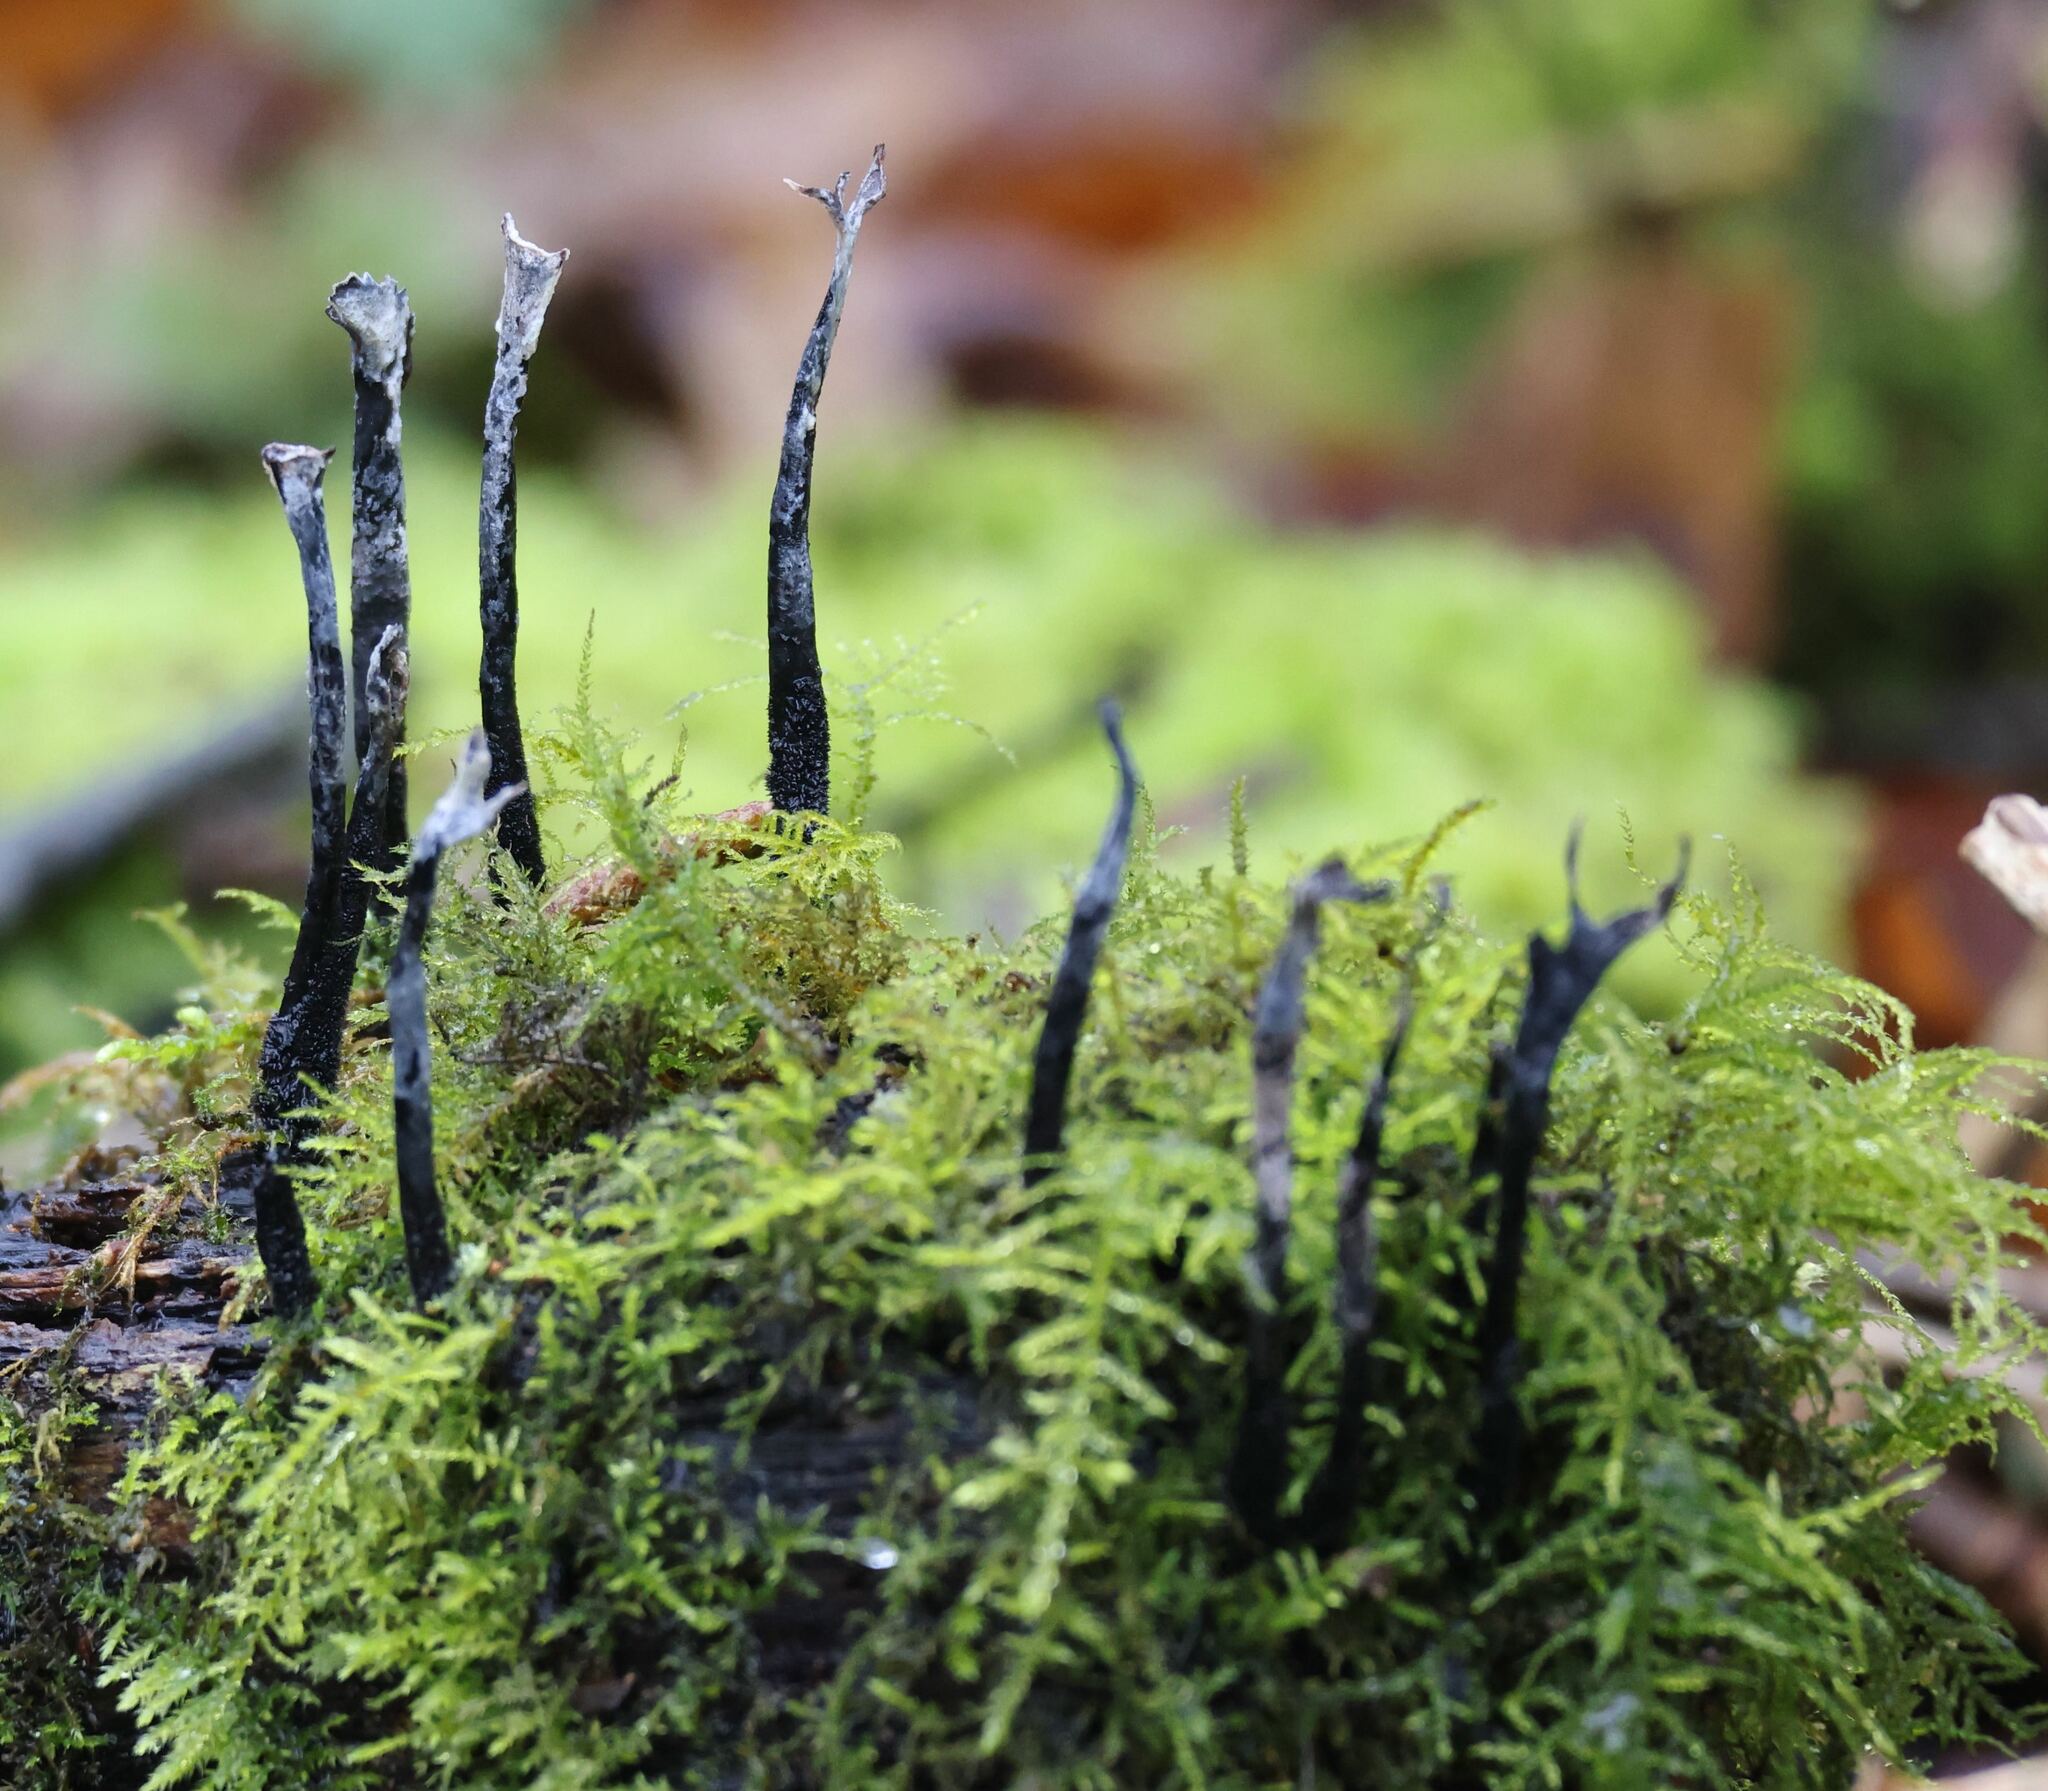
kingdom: Fungi
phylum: Ascomycota
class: Sordariomycetes
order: Xylariales
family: Xylariaceae
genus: Xylaria
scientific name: Xylaria hypoxylon
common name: Candle-snuff fungus
